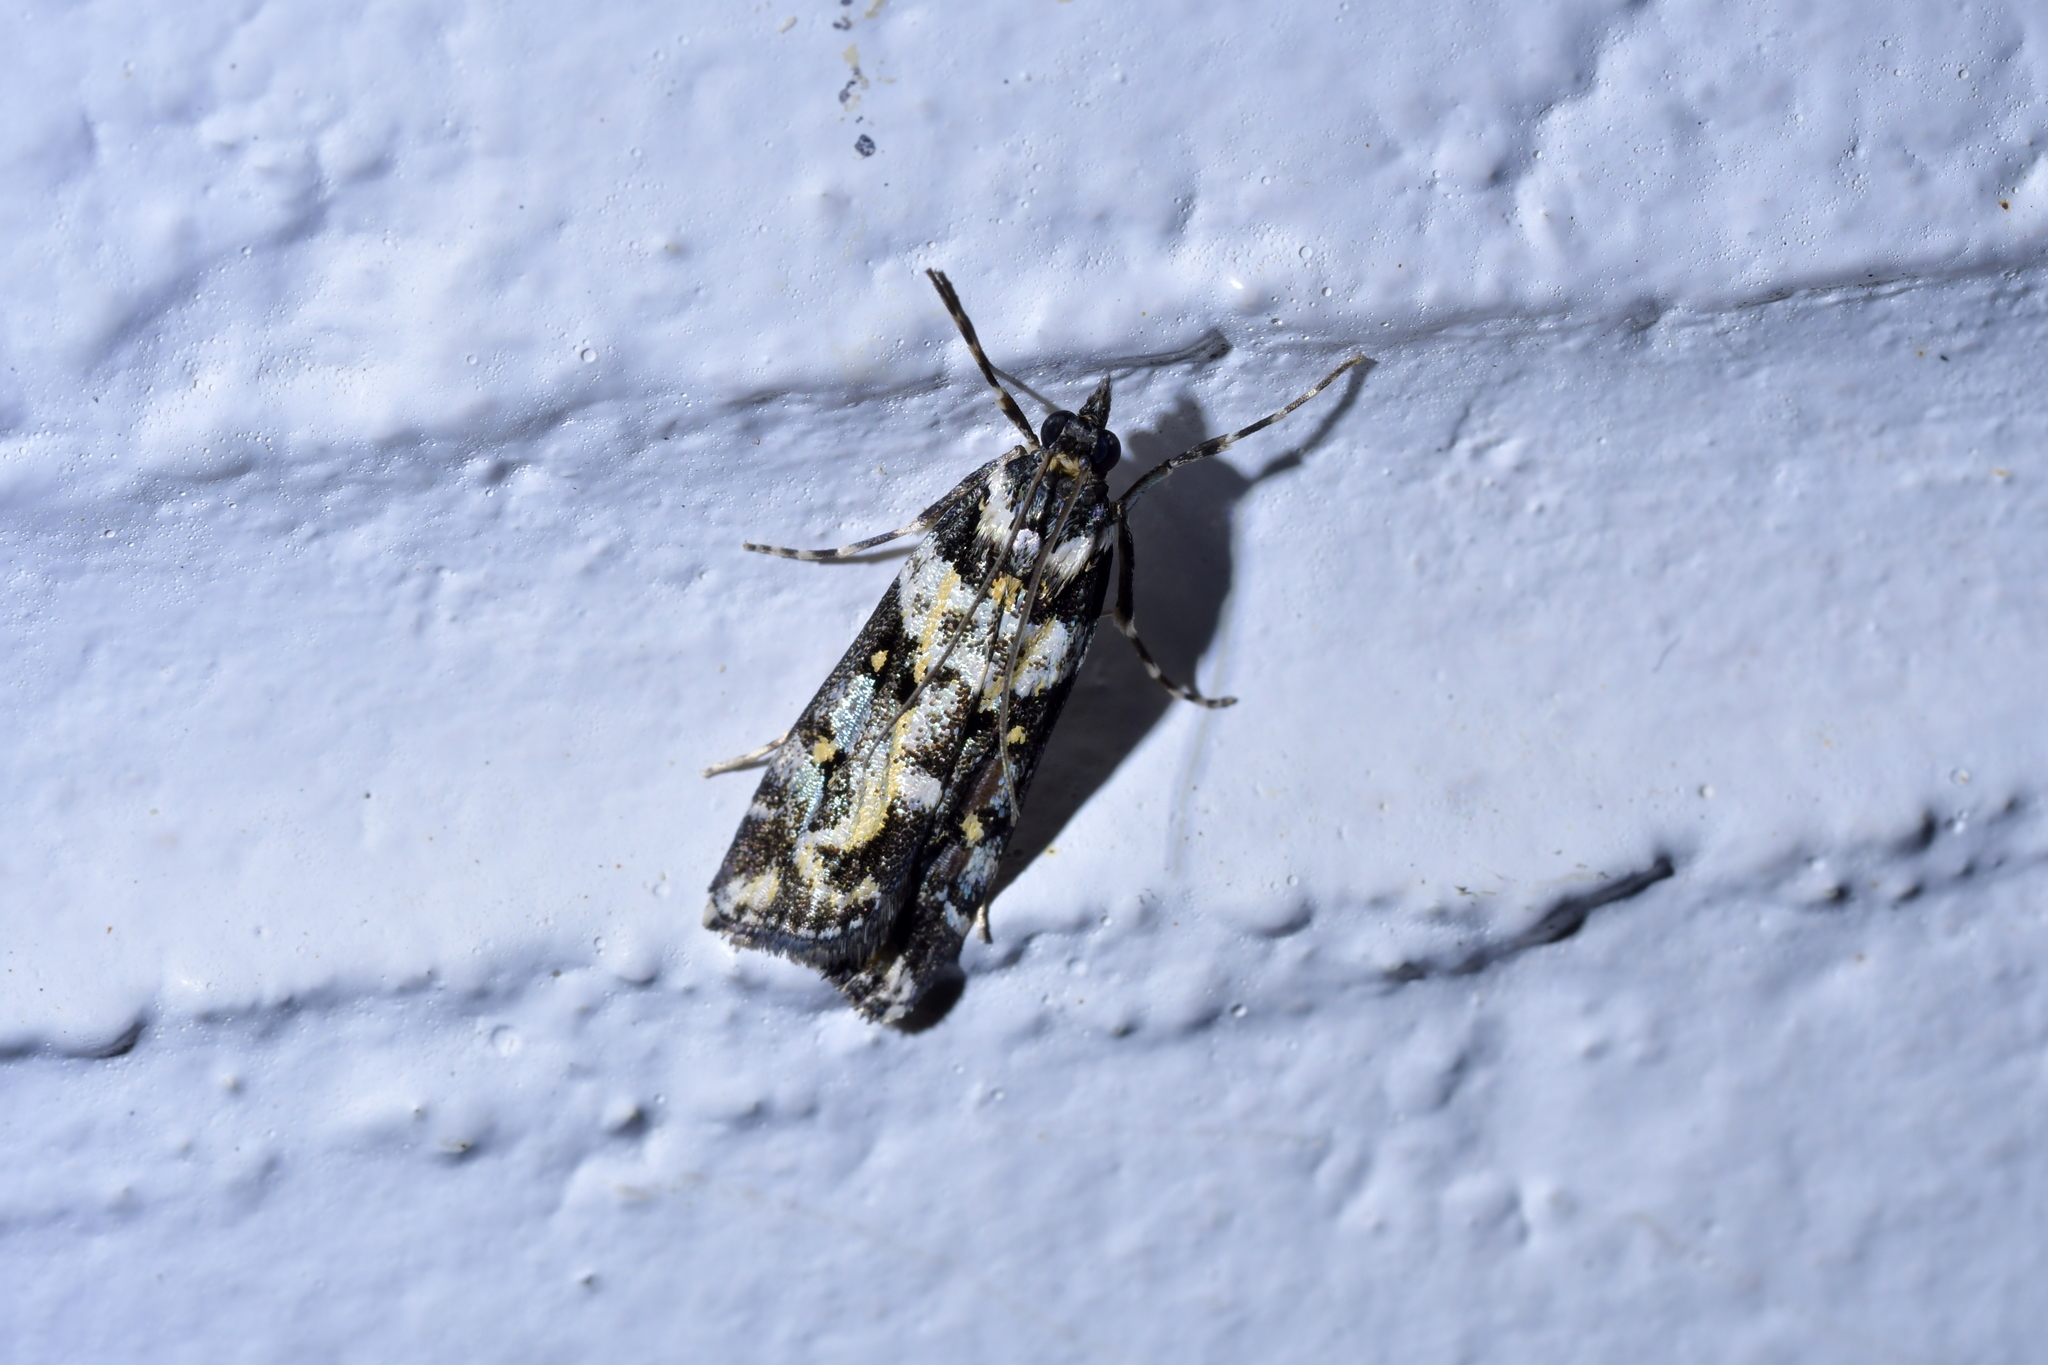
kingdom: Animalia
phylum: Arthropoda
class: Insecta
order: Lepidoptera
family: Crambidae
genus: Eudonia
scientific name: Eudonia diphtheralis
